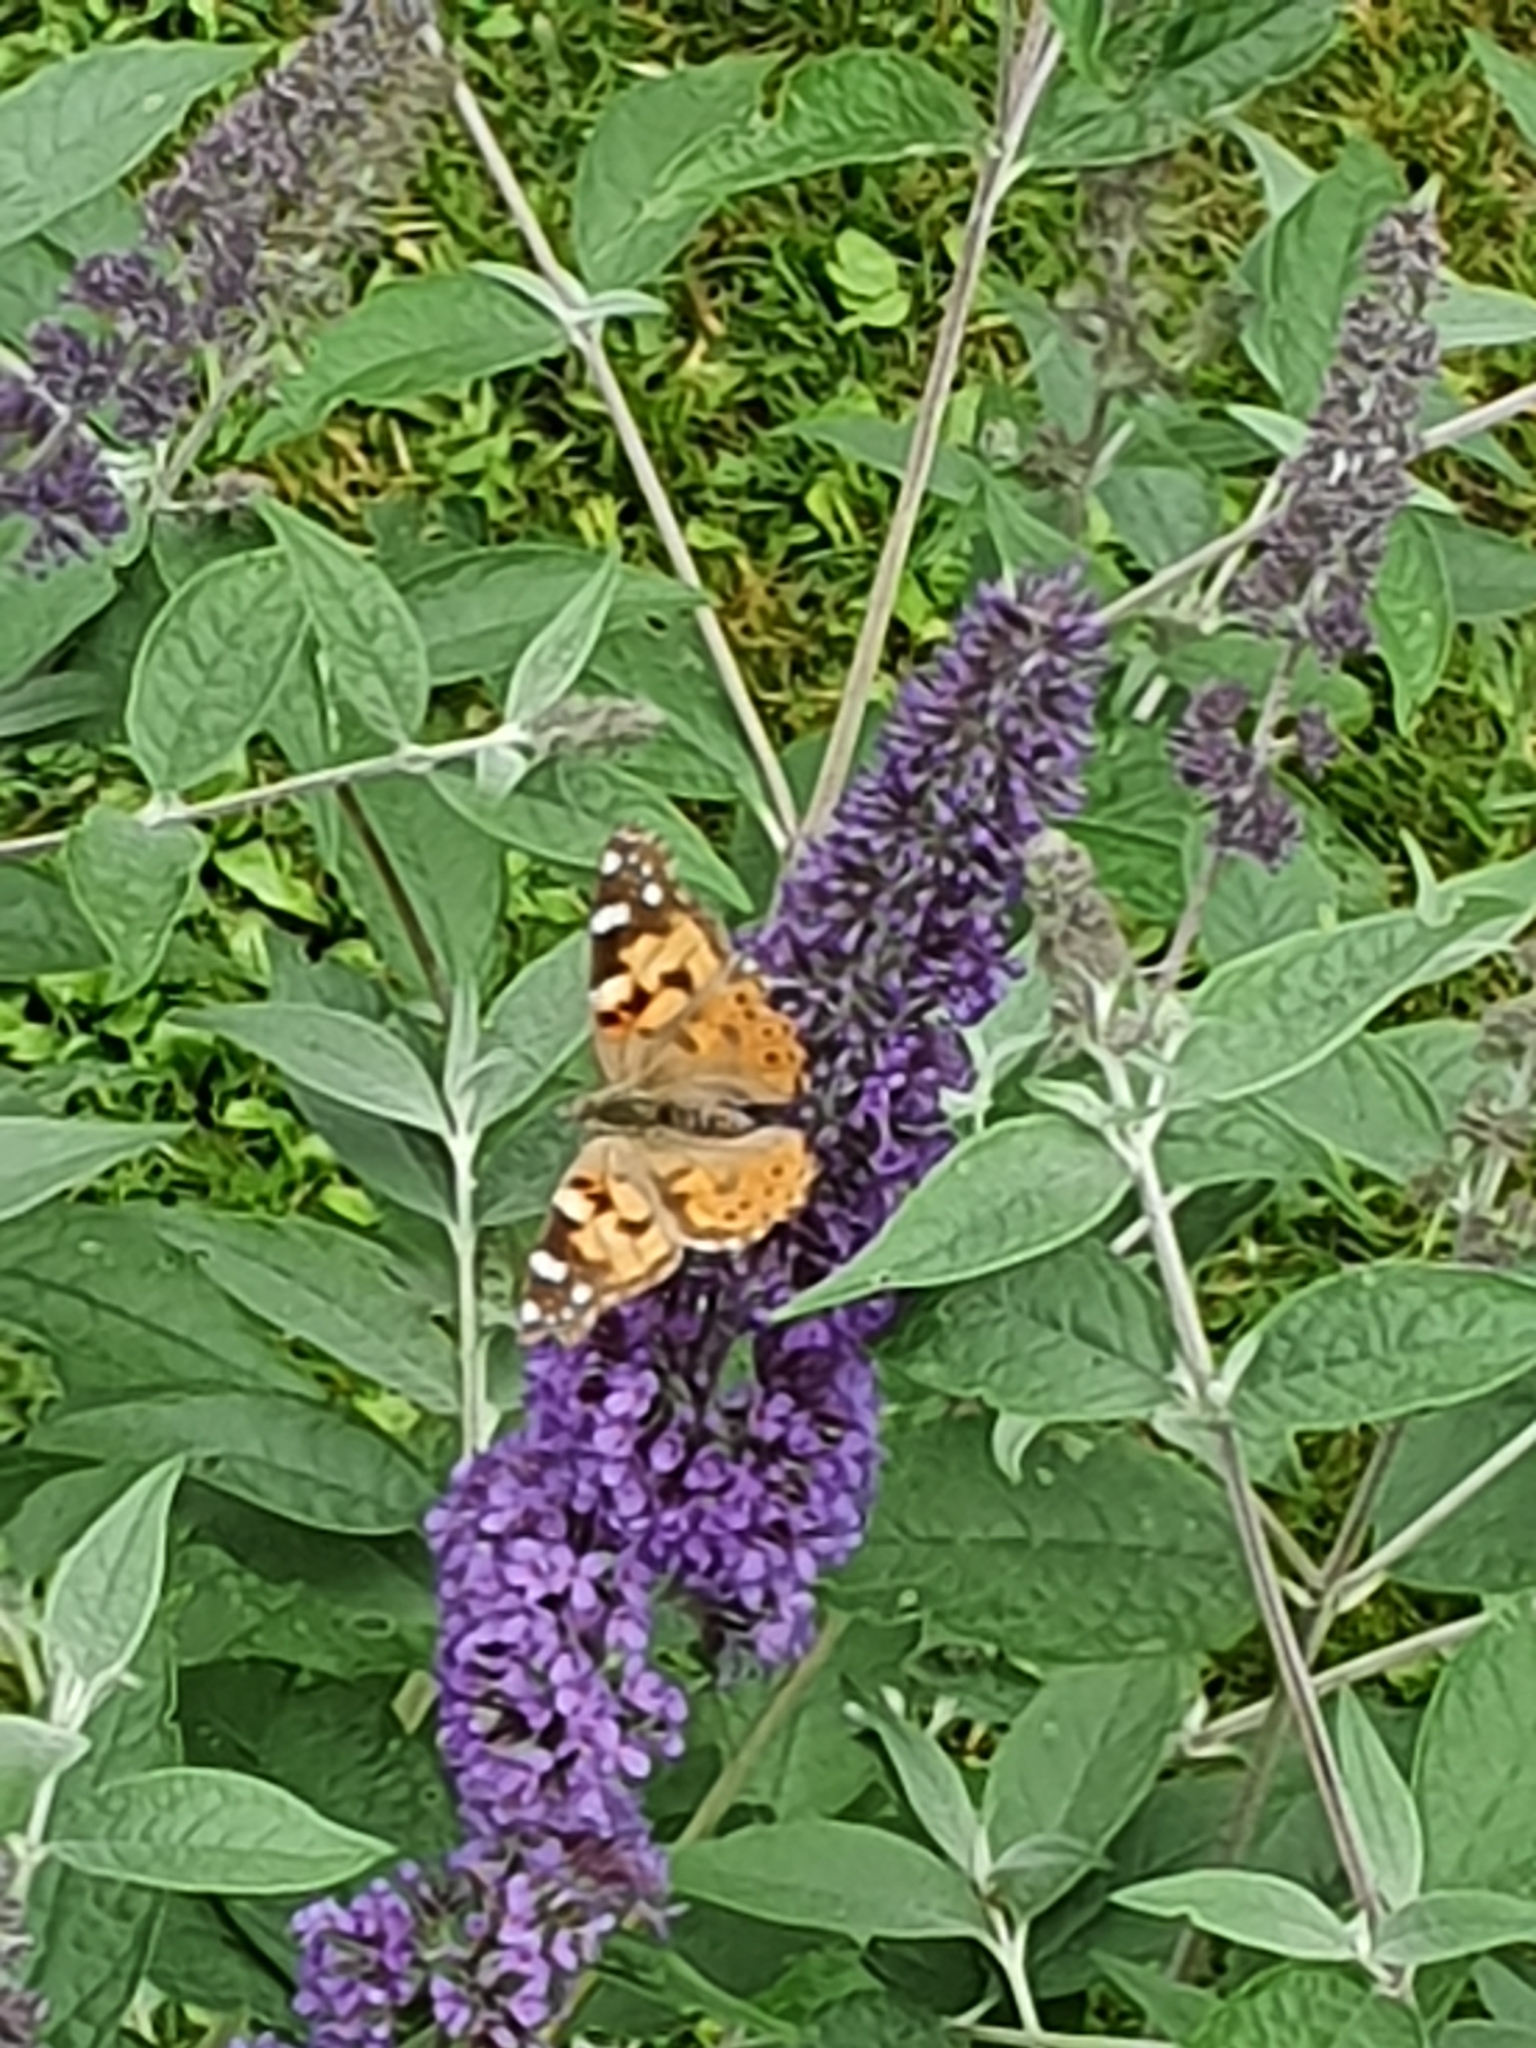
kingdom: Animalia
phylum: Arthropoda
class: Insecta
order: Lepidoptera
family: Nymphalidae
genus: Vanessa
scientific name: Vanessa cardui
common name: Painted lady
